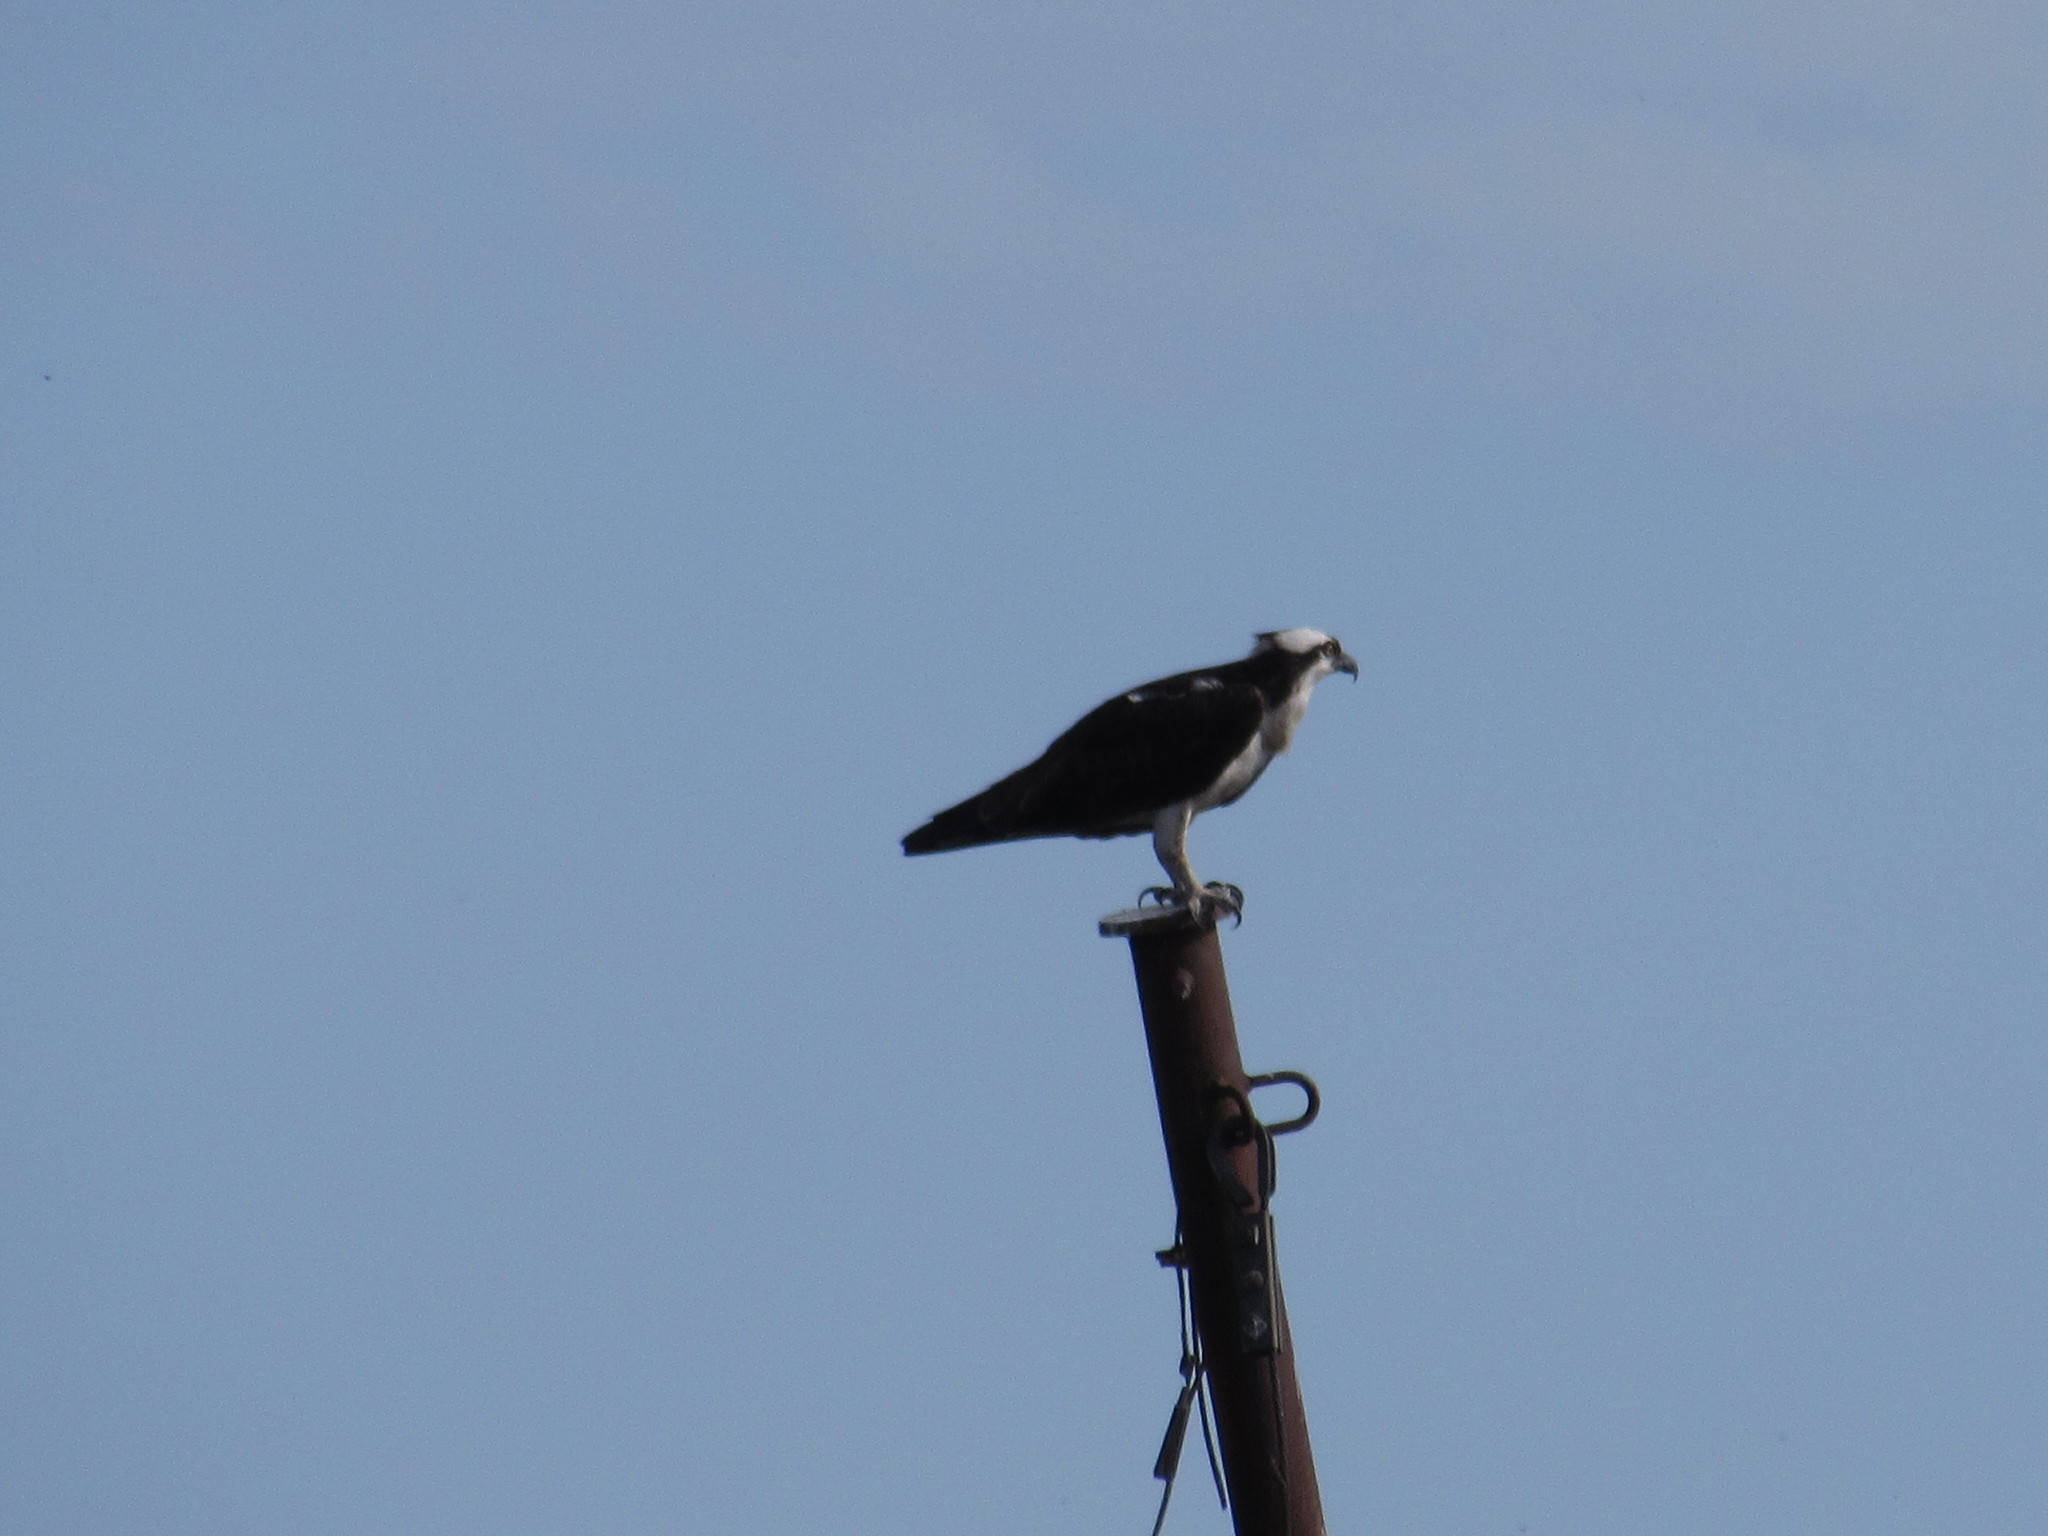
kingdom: Animalia
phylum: Chordata
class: Aves
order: Accipitriformes
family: Pandionidae
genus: Pandion
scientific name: Pandion haliaetus
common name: Osprey
